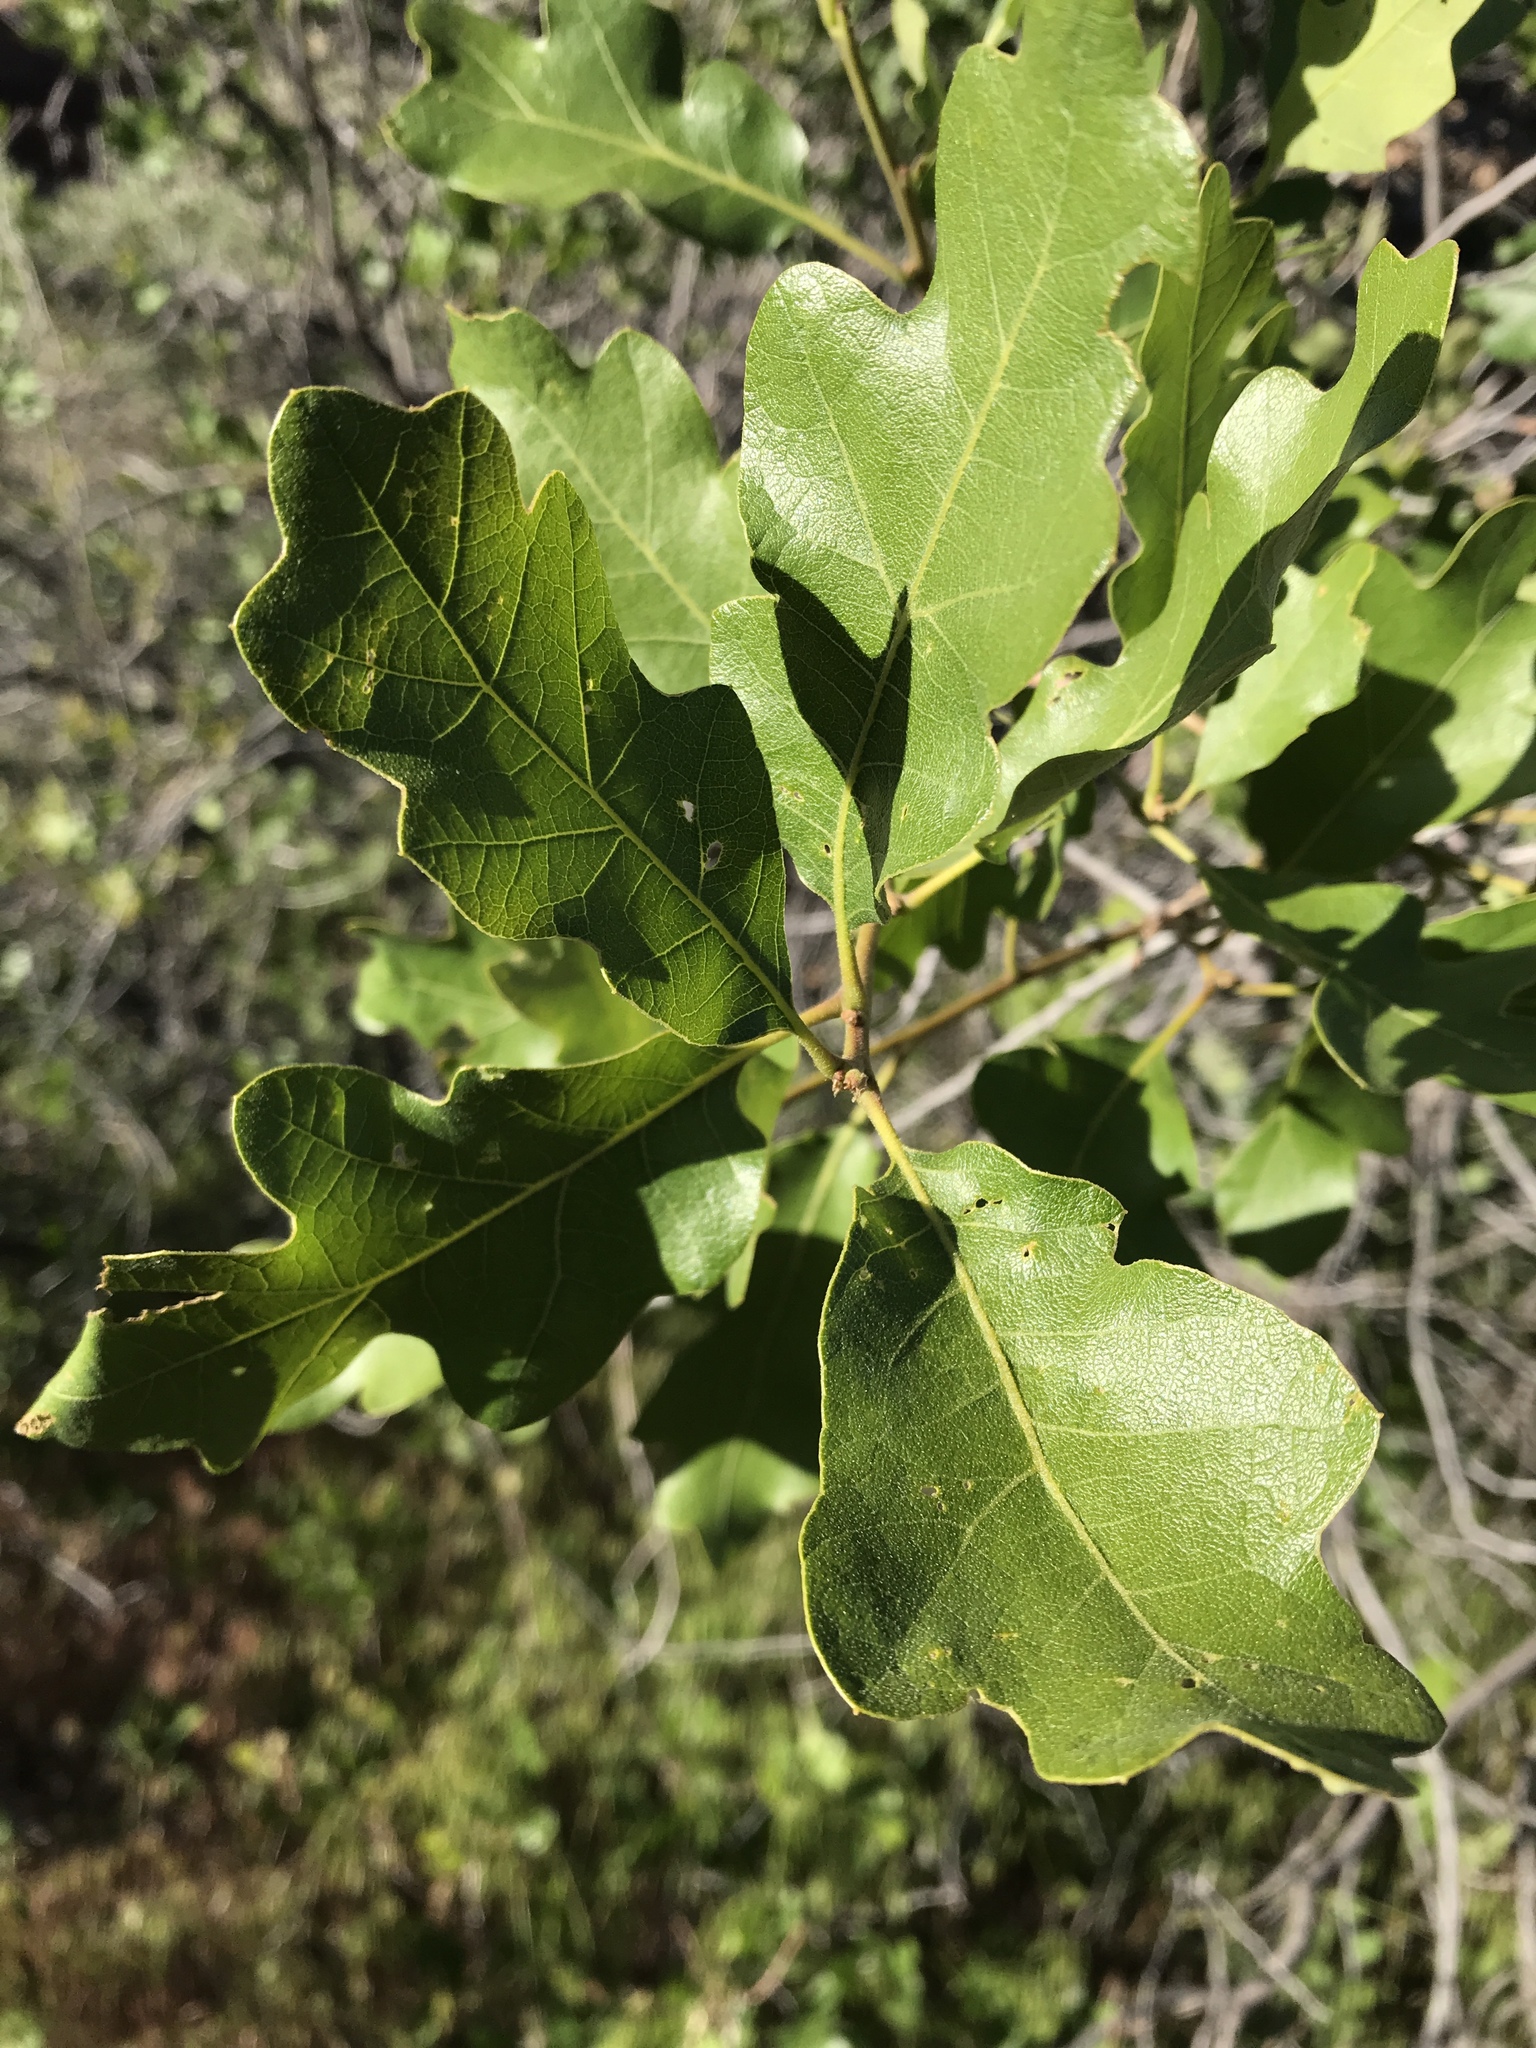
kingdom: Plantae
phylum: Tracheophyta
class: Magnoliopsida
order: Fagales
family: Fagaceae
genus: Quercus
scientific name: Quercus gambelii
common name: Gambel oak
